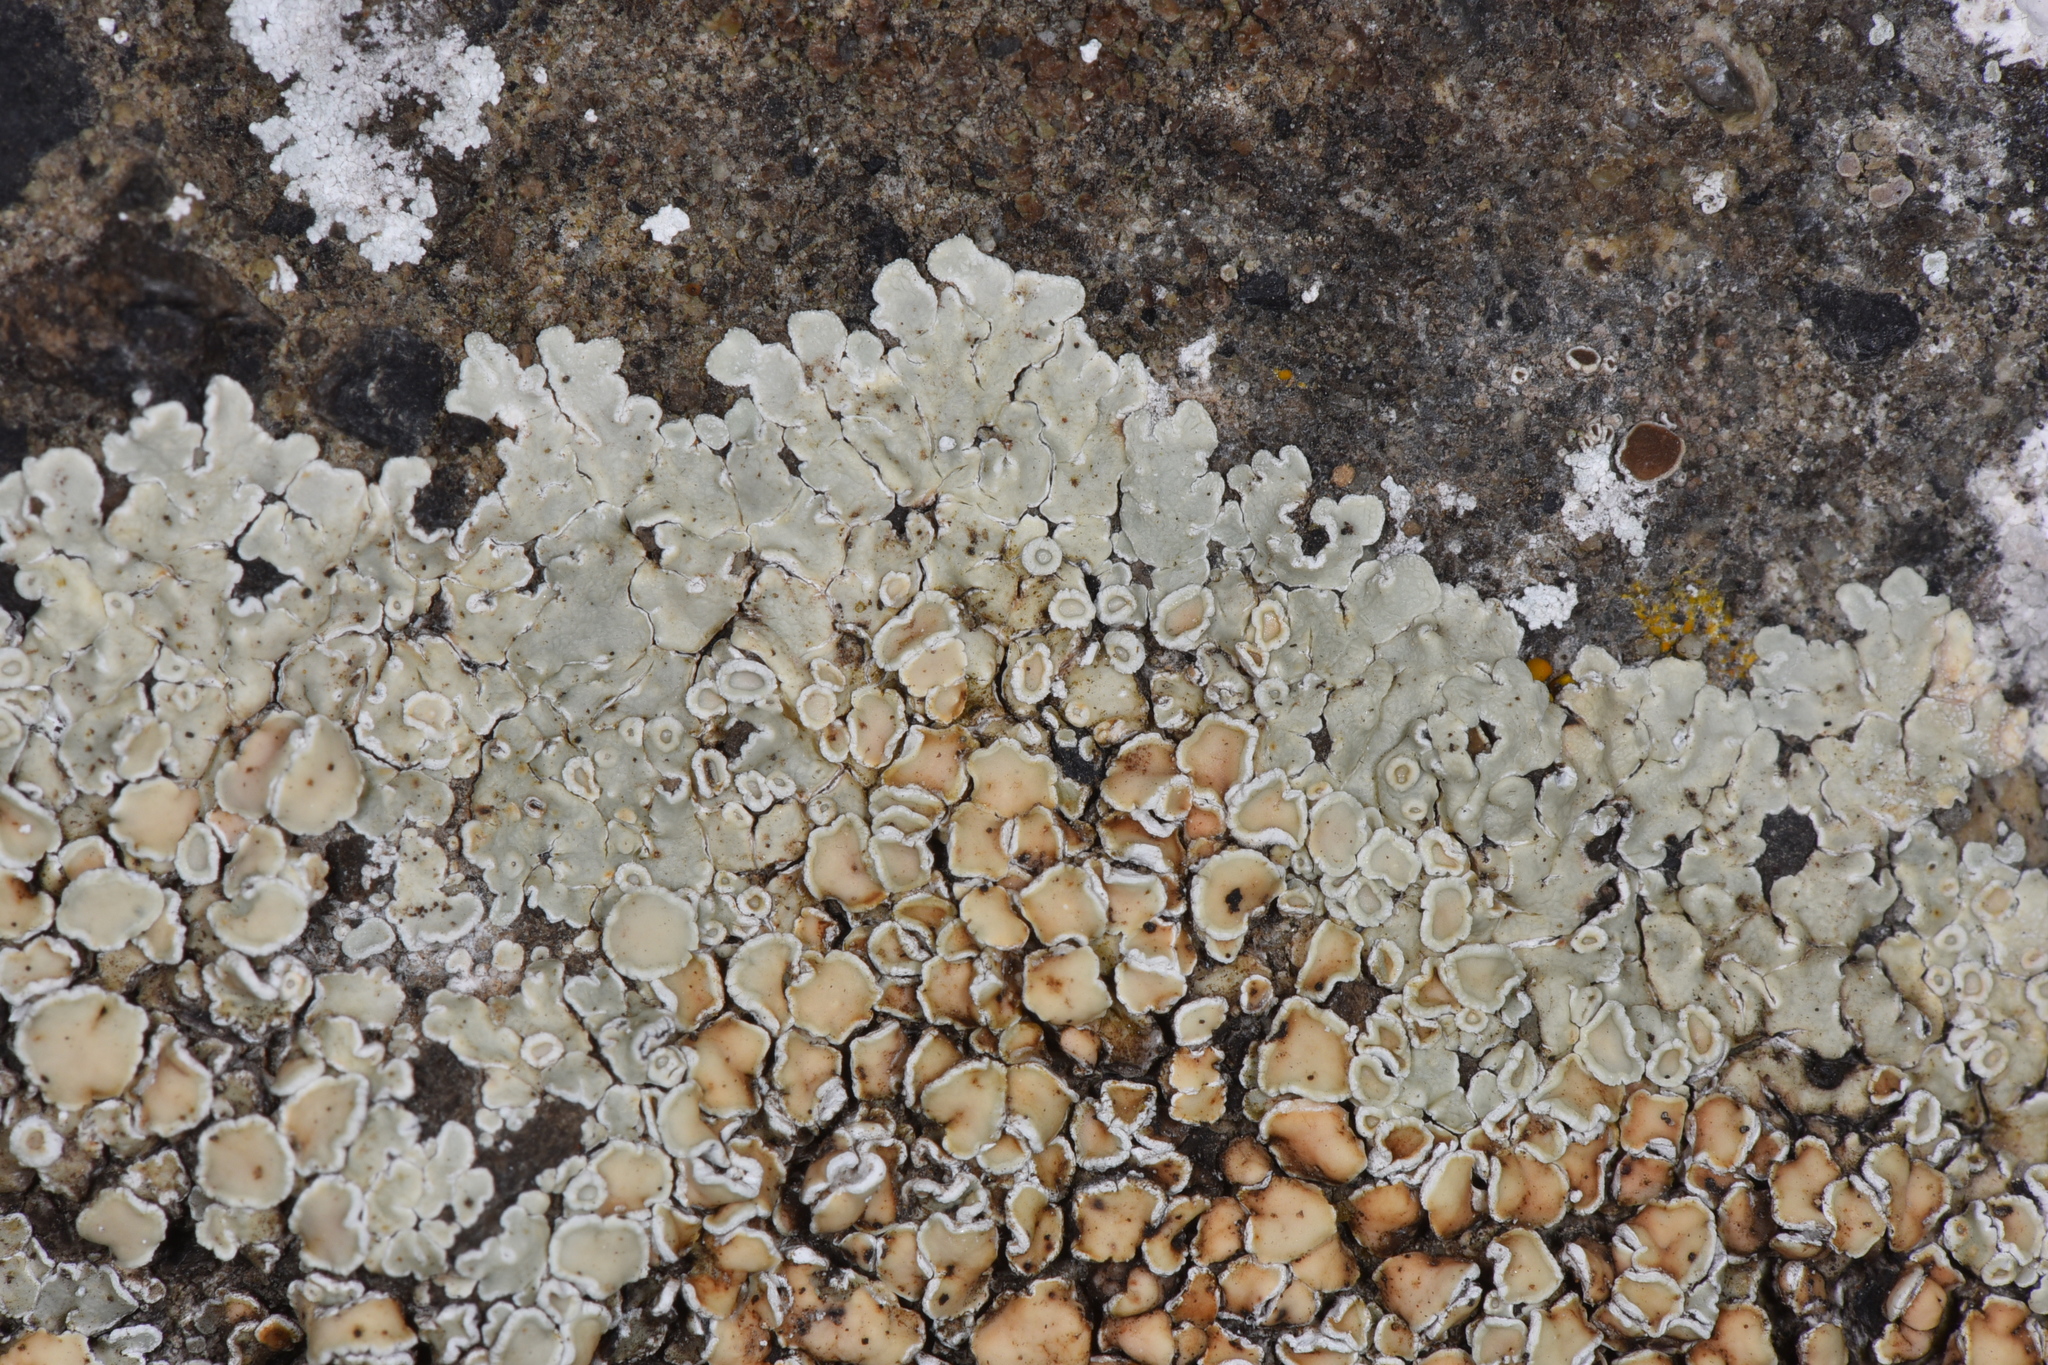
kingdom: Fungi
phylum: Ascomycota
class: Lecanoromycetes
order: Lecanorales
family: Lecanoraceae
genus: Protoparmeliopsis
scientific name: Protoparmeliopsis muralis
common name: Stonewall rim lichen
